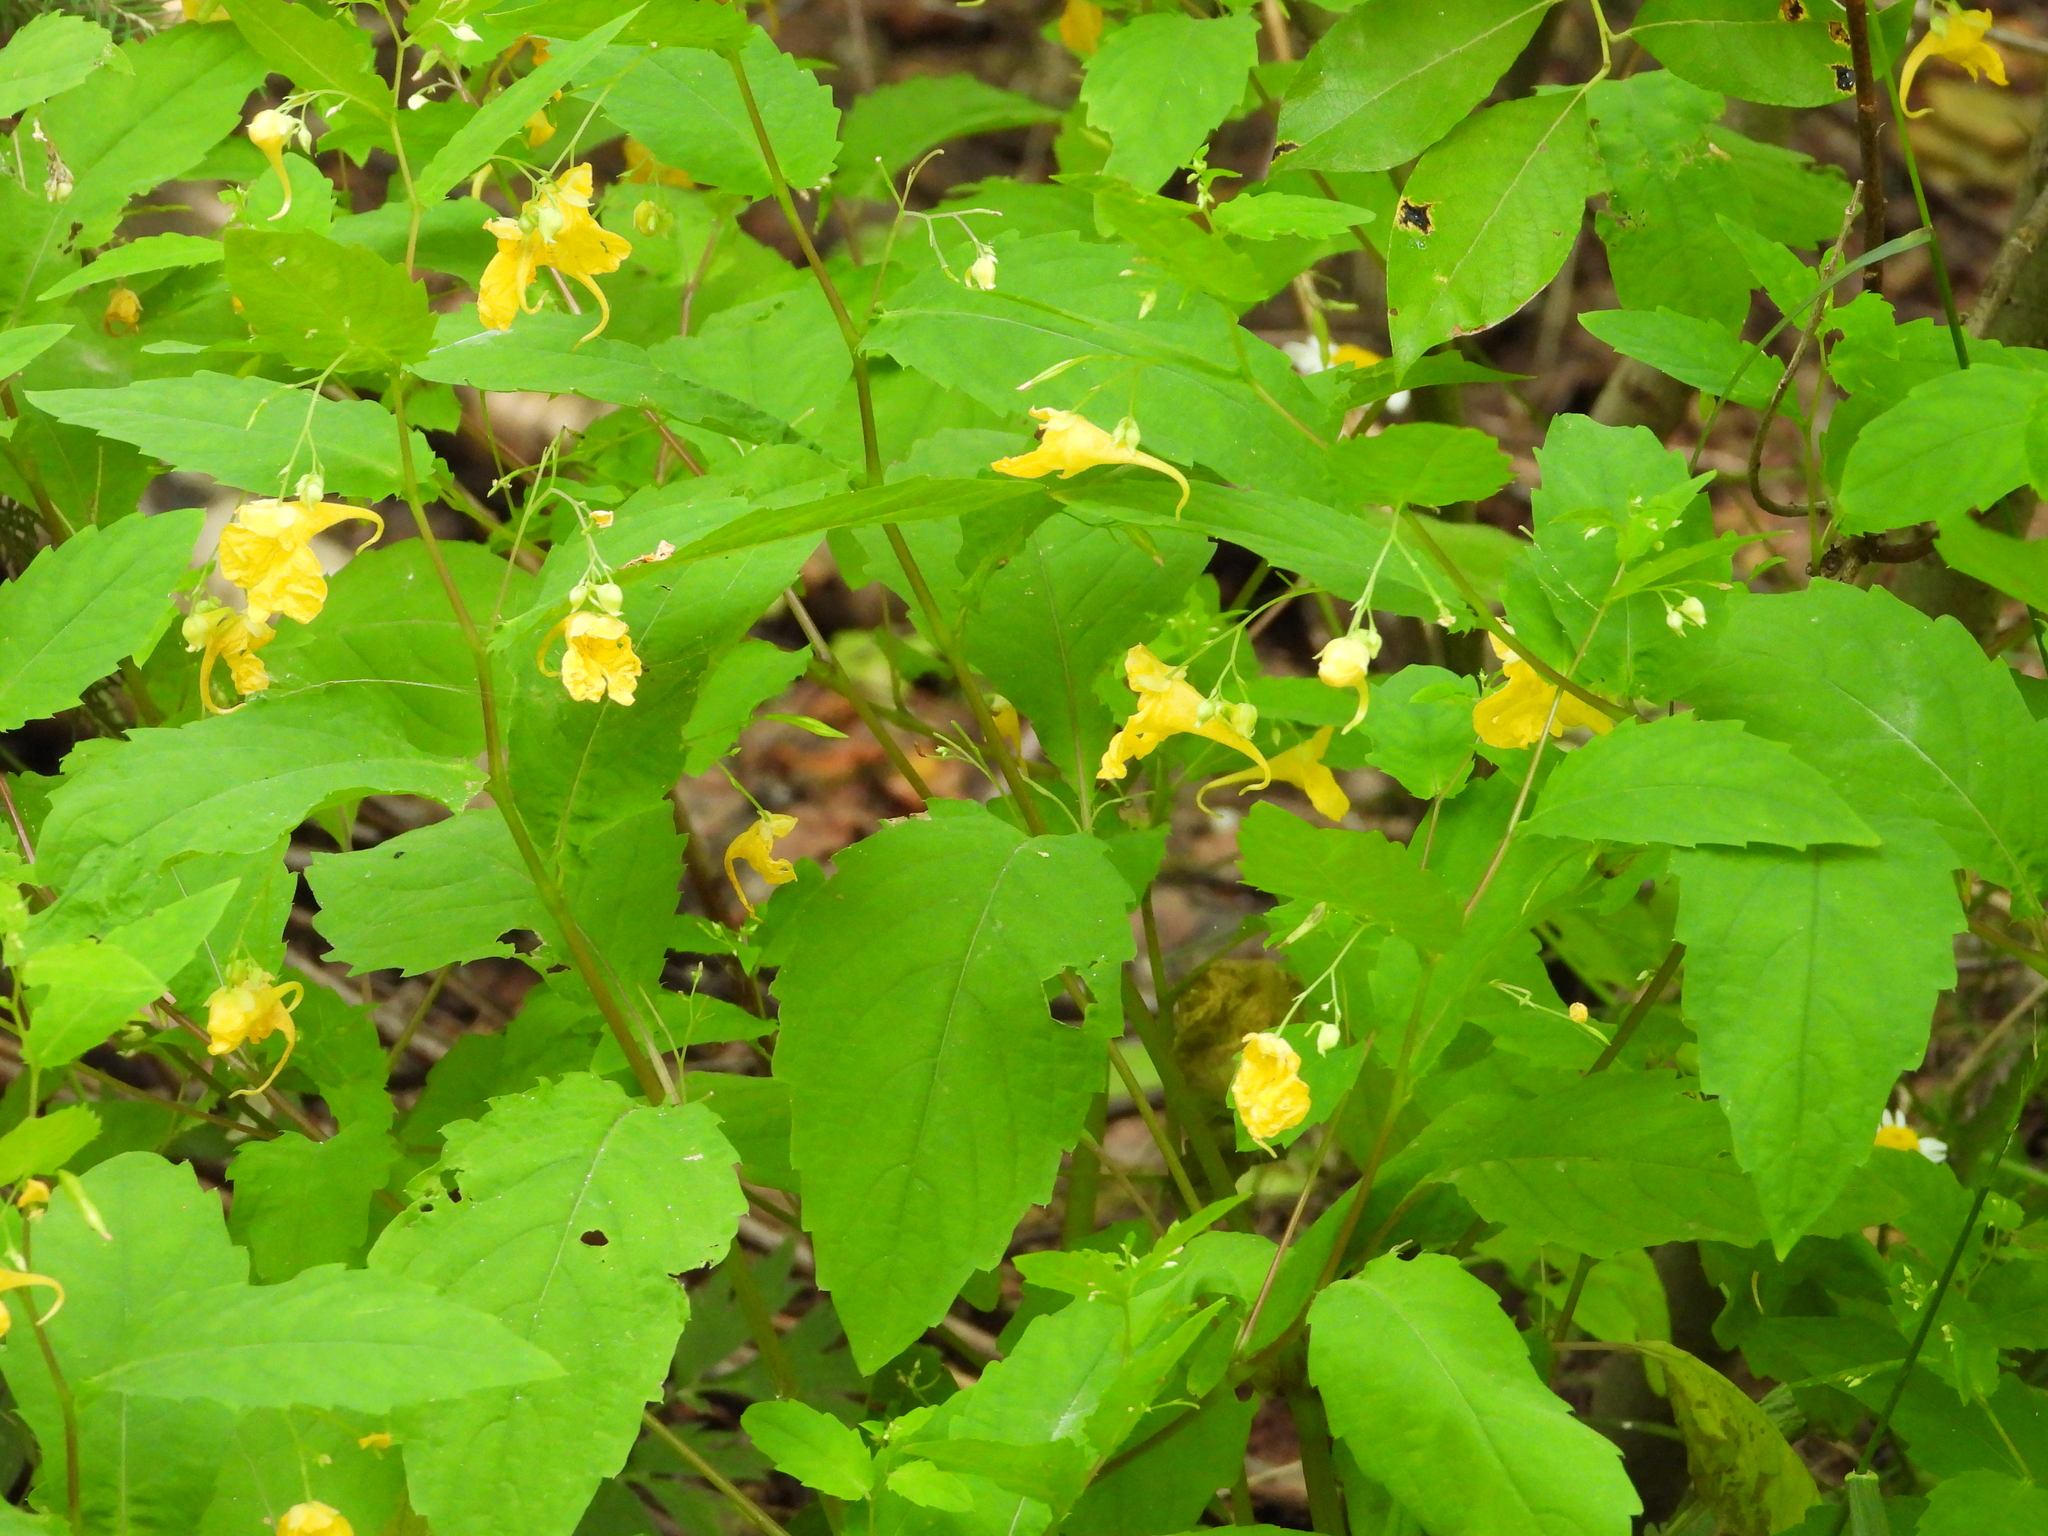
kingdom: Plantae
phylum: Tracheophyta
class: Magnoliopsida
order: Ericales
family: Balsaminaceae
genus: Impatiens
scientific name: Impatiens noli-tangere
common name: Touch-me-not balsam
